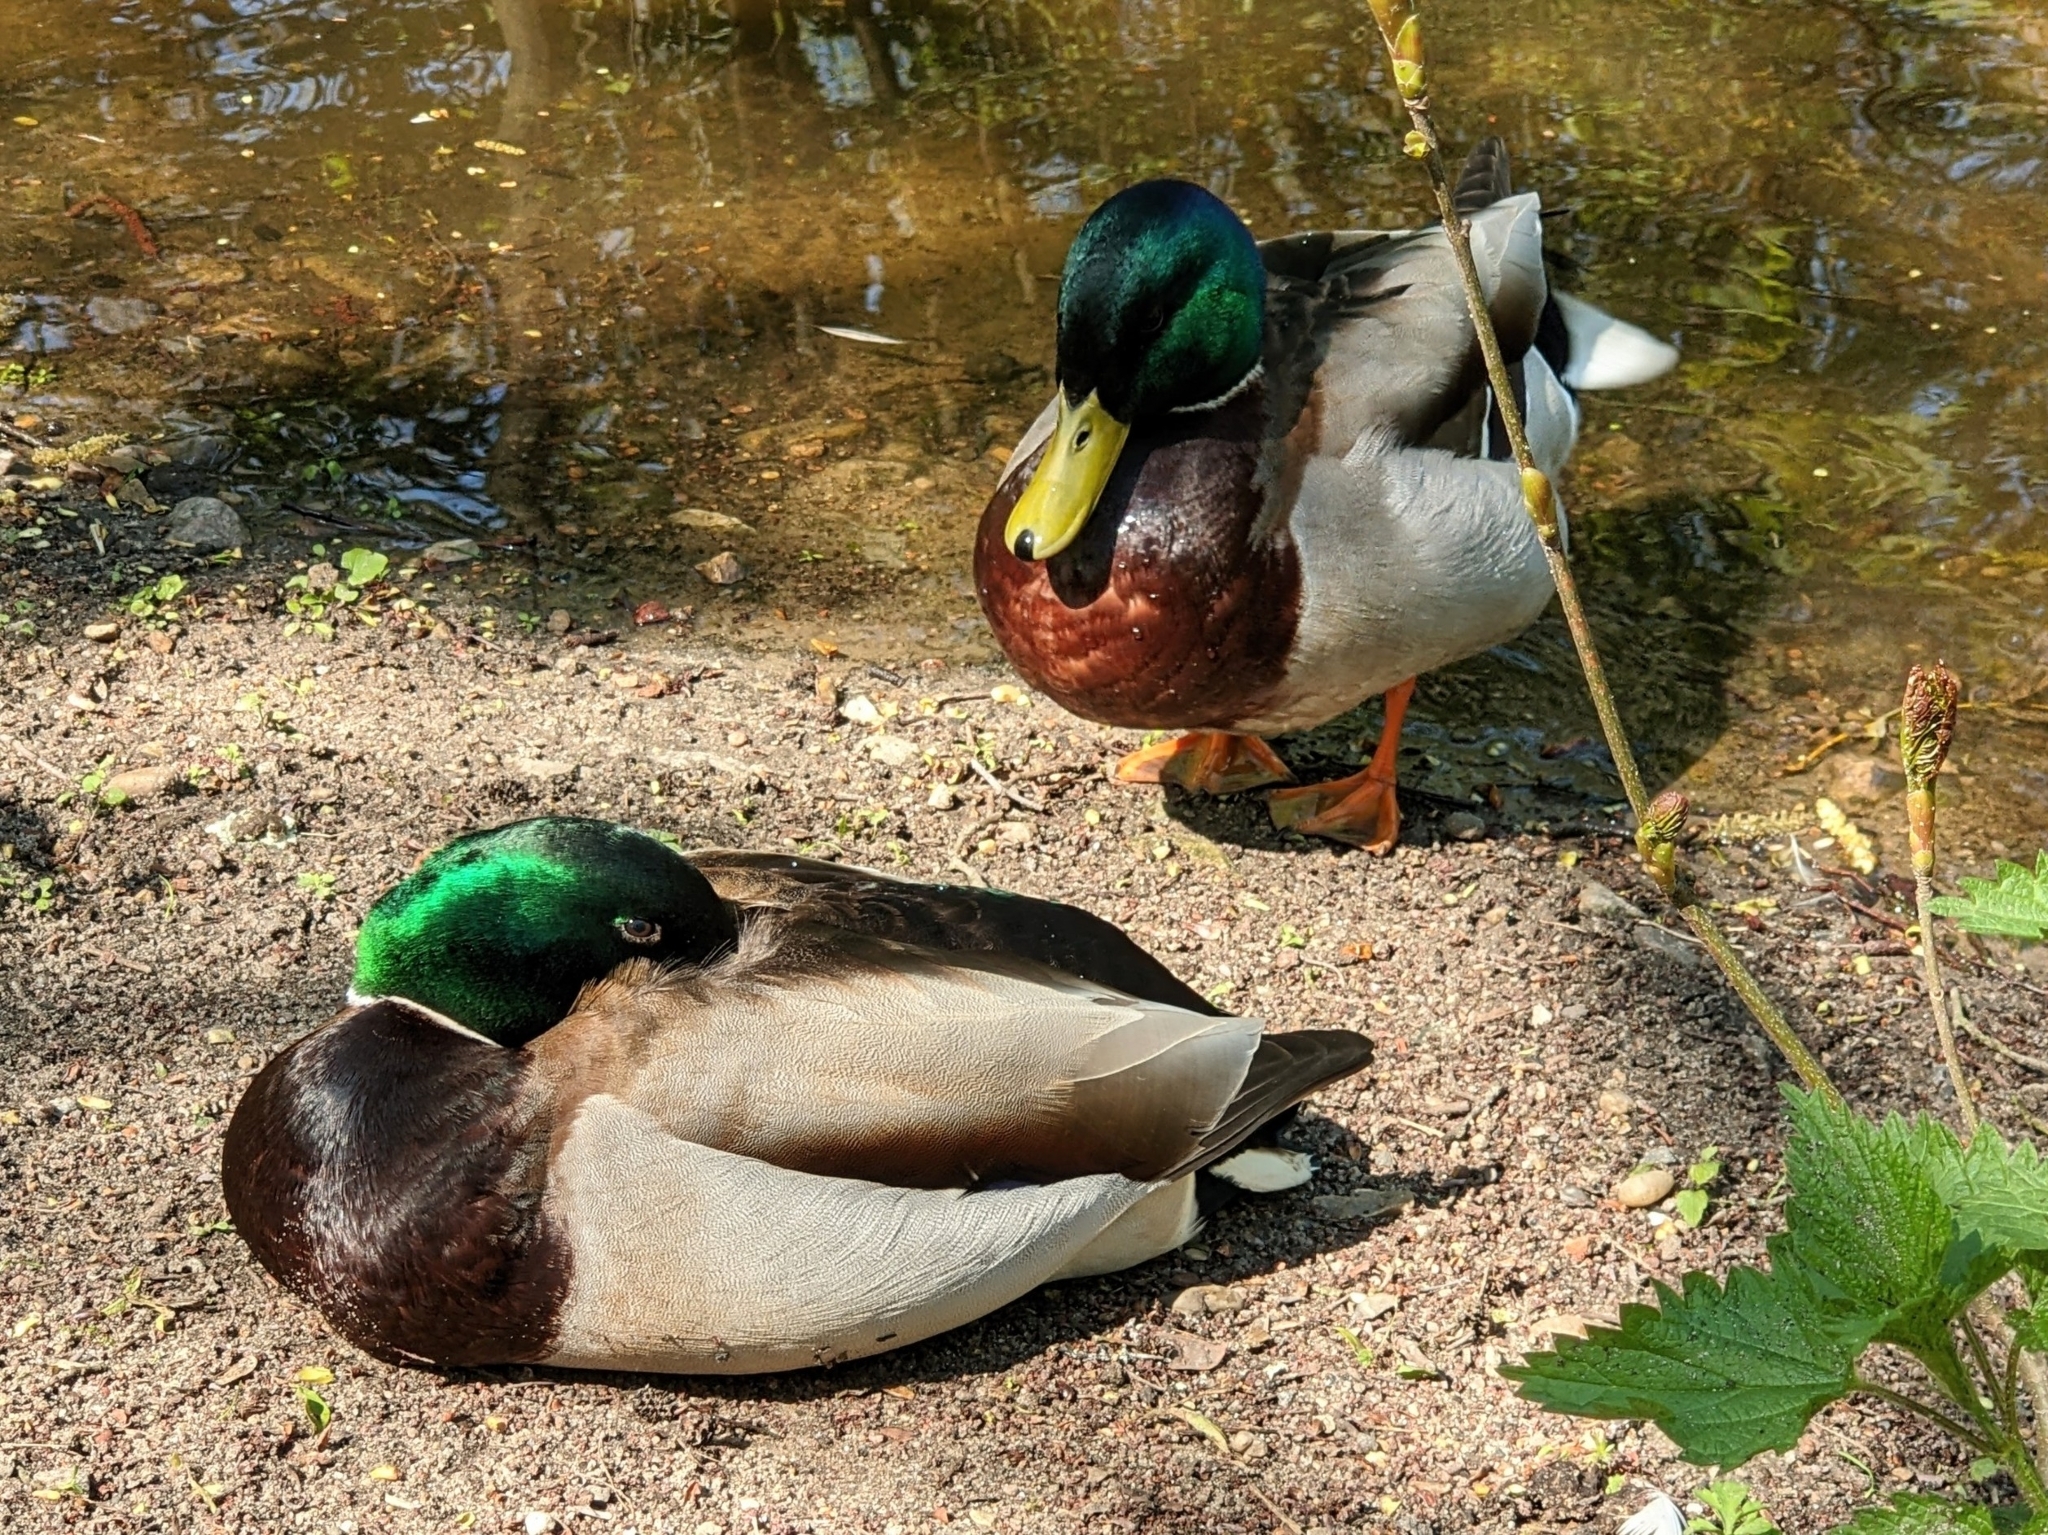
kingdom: Animalia
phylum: Chordata
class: Aves
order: Anseriformes
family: Anatidae
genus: Anas
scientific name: Anas platyrhynchos
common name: Mallard
